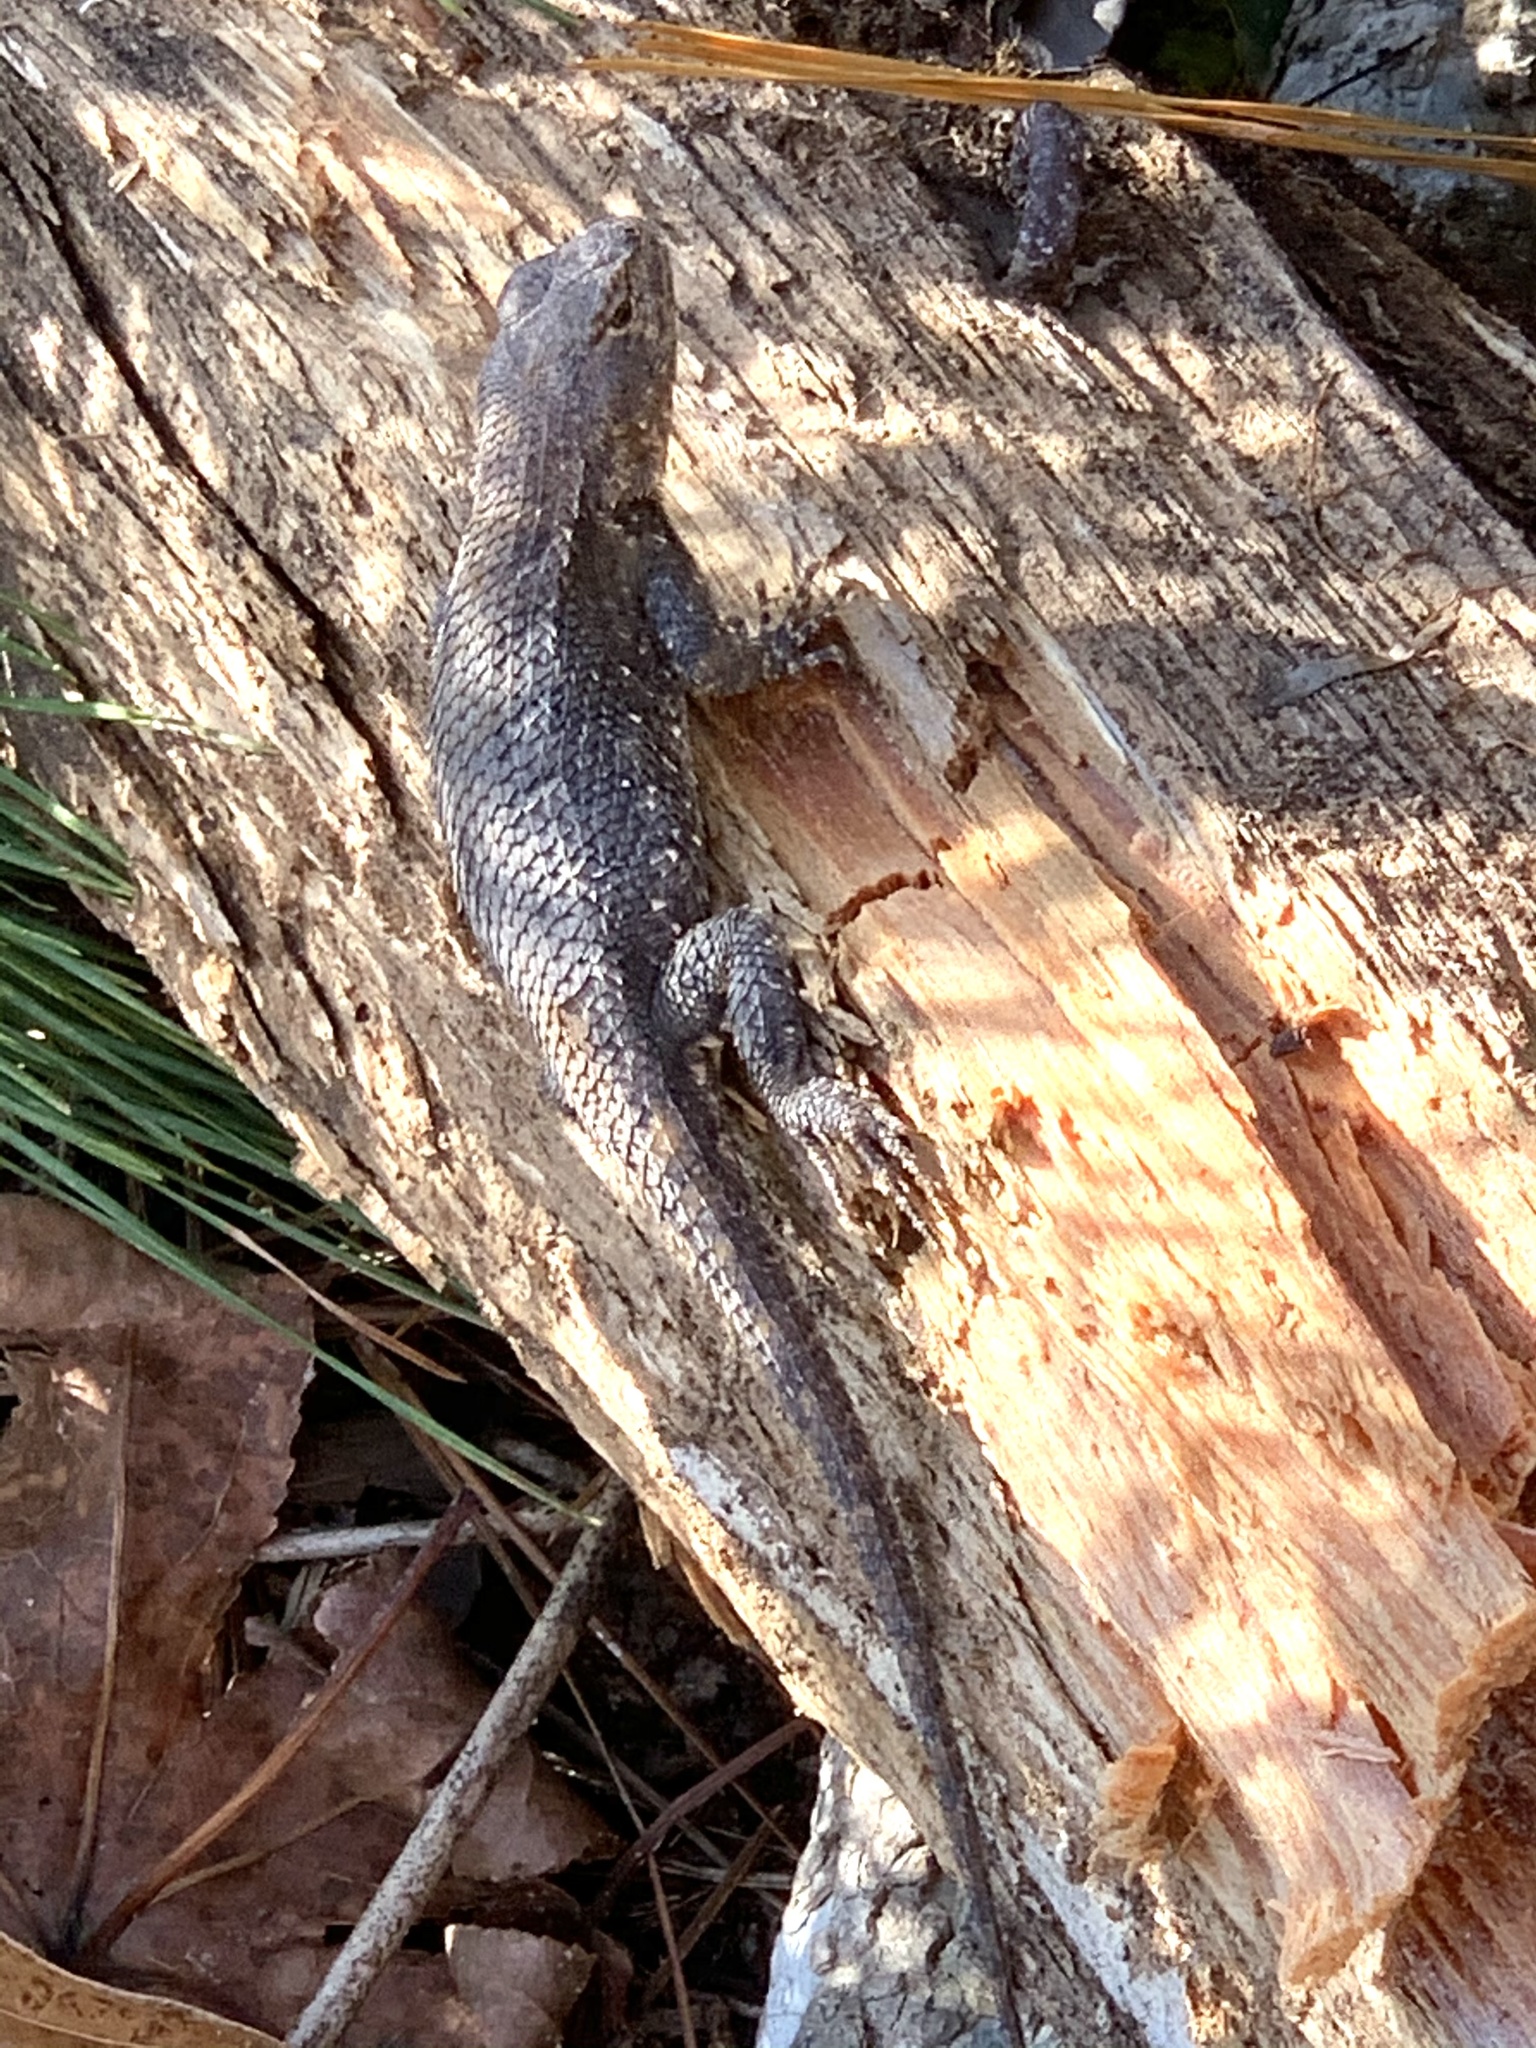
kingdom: Animalia
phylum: Chordata
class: Squamata
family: Phrynosomatidae
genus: Sceloporus
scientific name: Sceloporus consobrinus
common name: Southern prairie lizard
